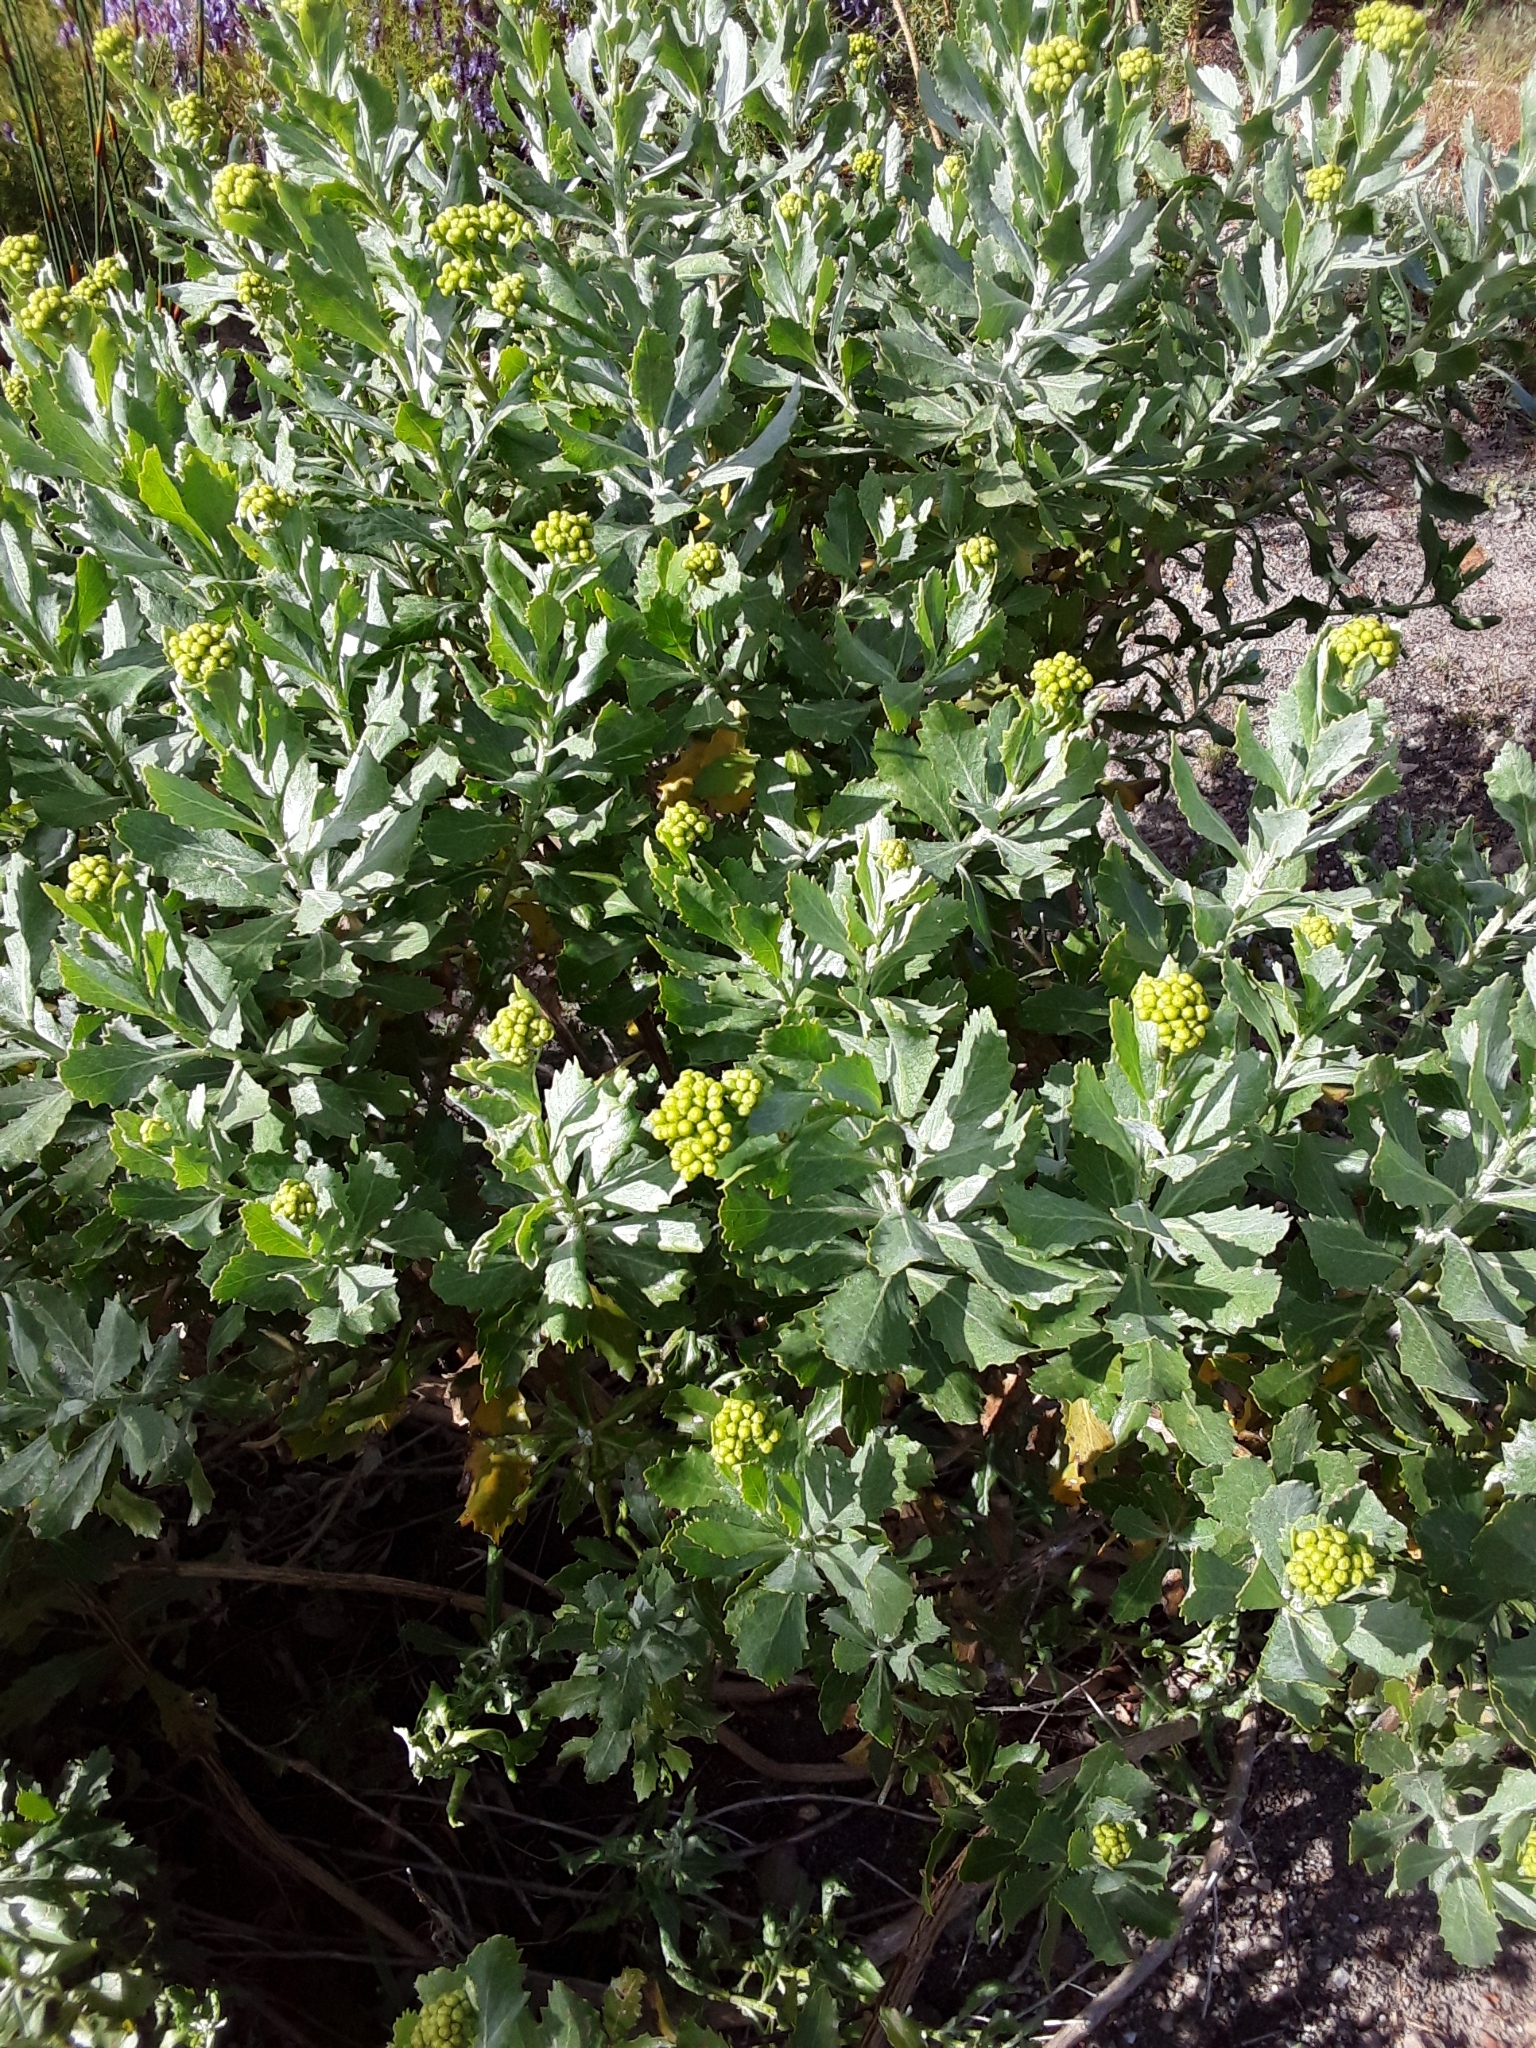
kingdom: Plantae
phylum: Tracheophyta
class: Magnoliopsida
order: Asterales
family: Asteraceae
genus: Senecio
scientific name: Senecio halimifolius
